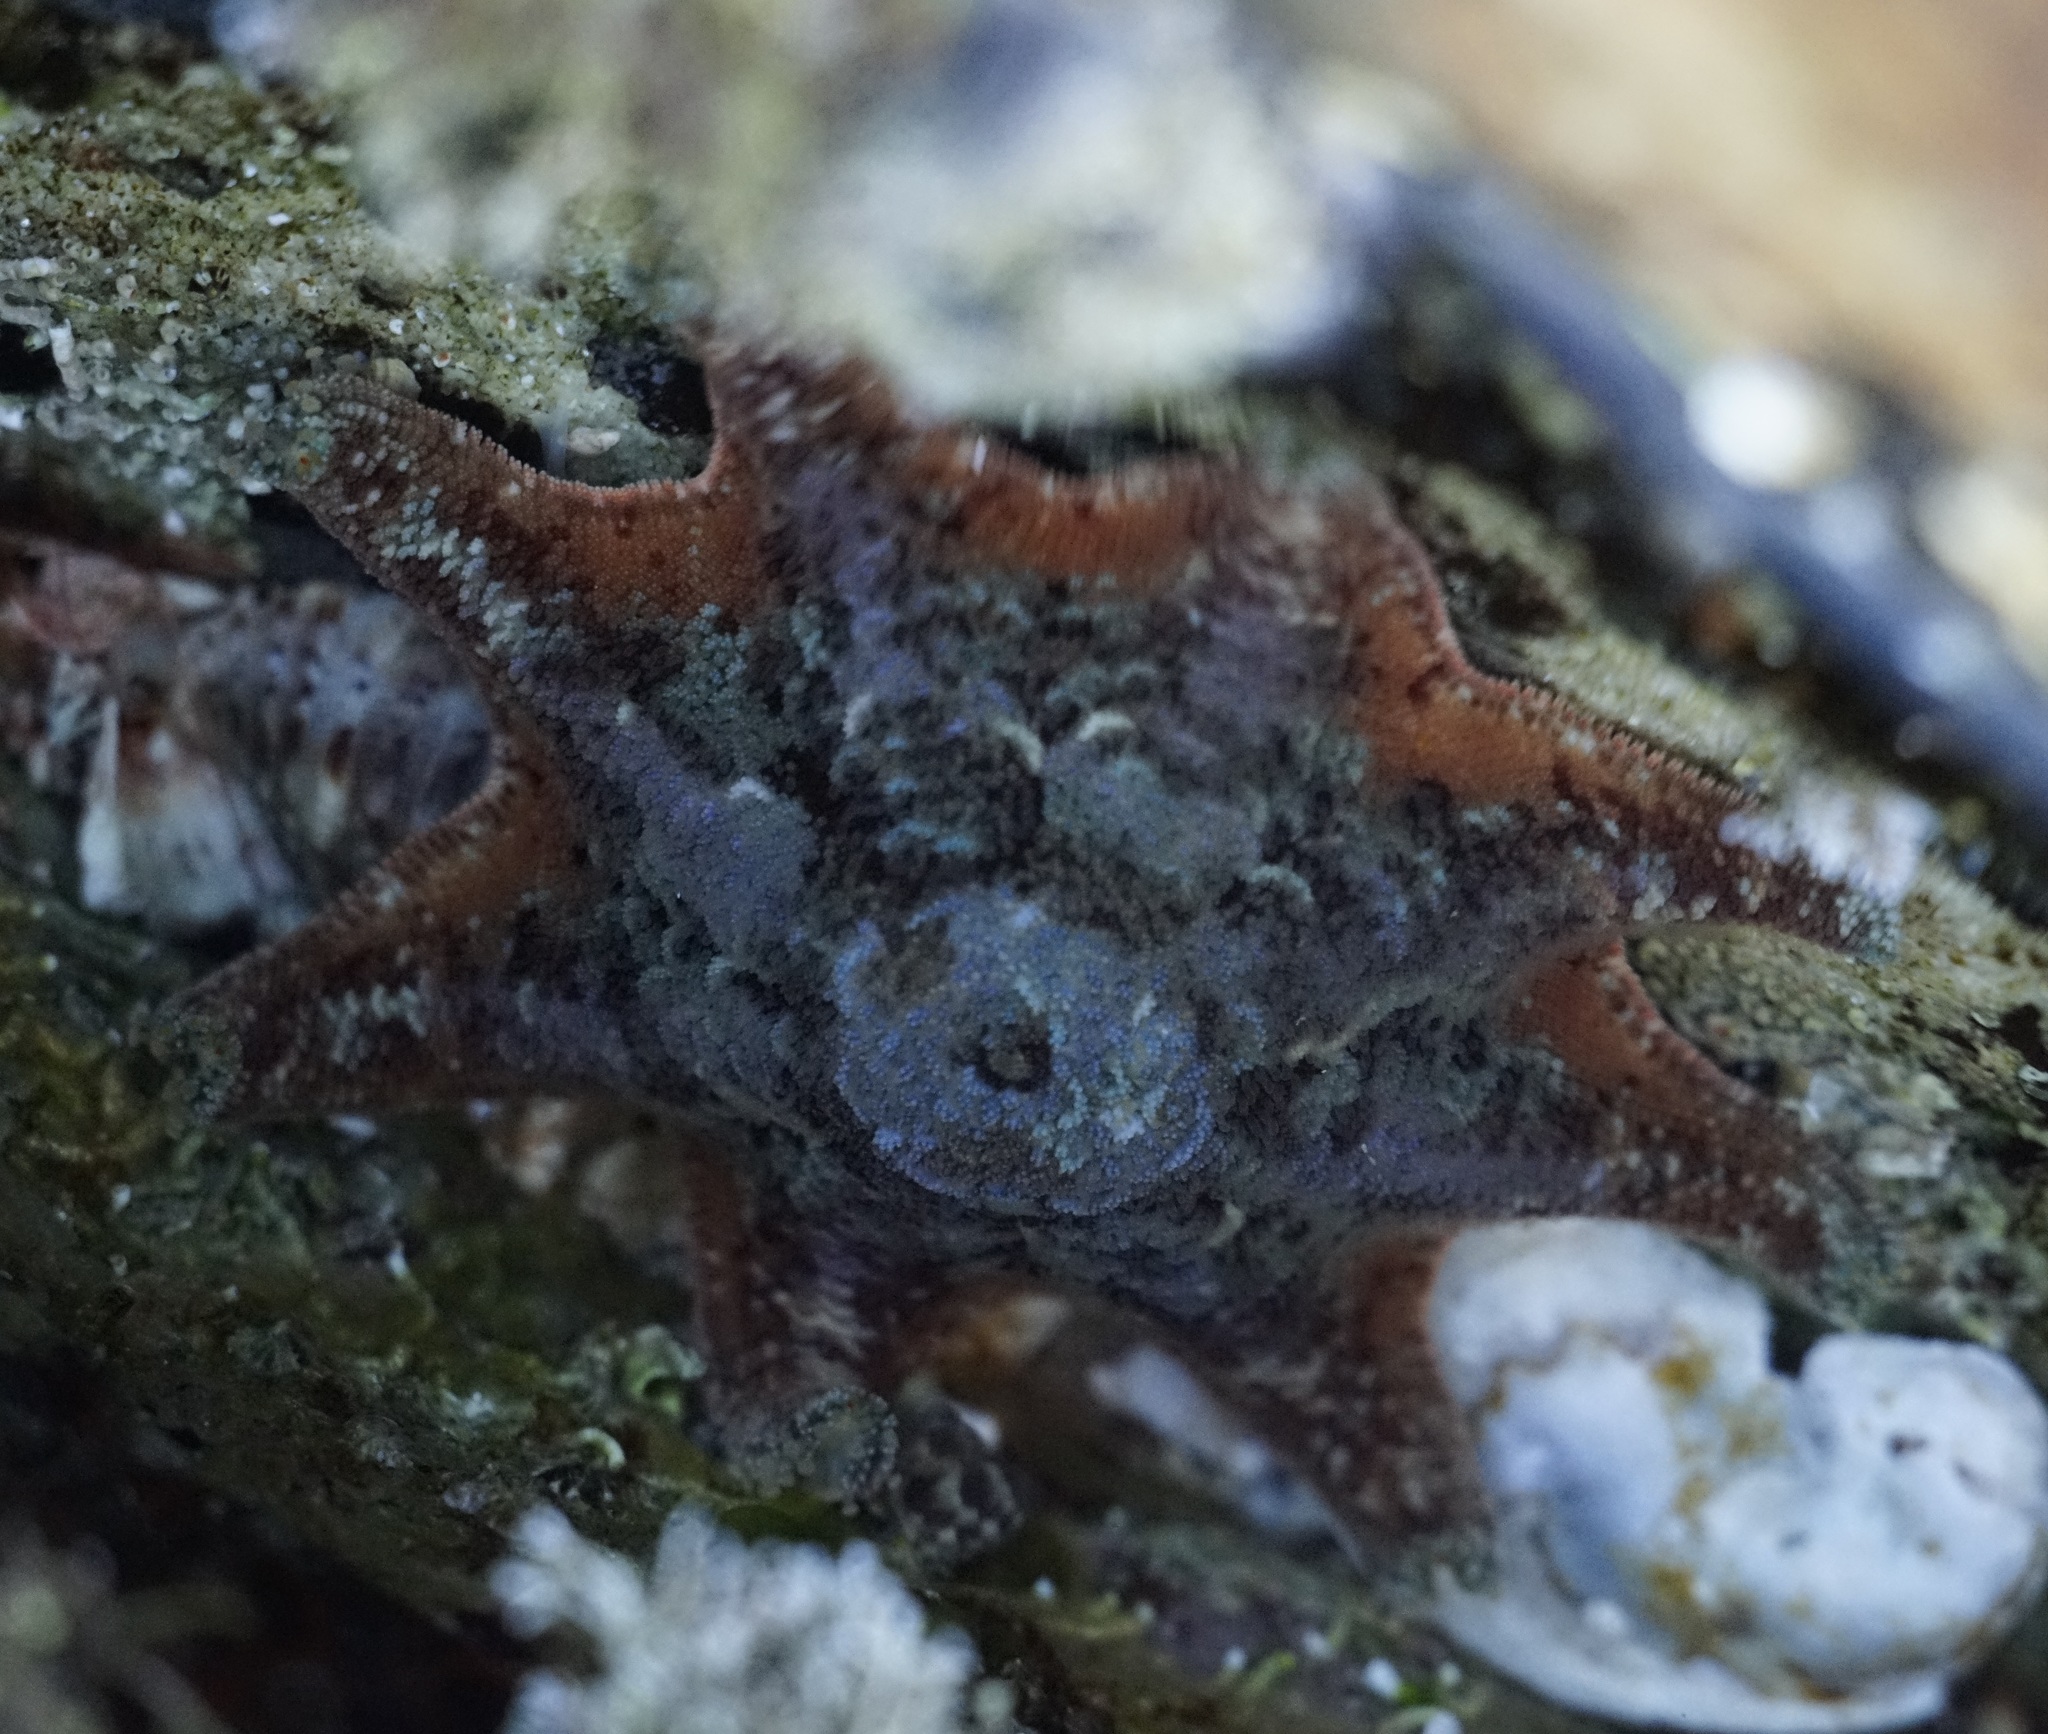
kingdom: Animalia
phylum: Echinodermata
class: Asteroidea
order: Valvatida
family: Asterinidae
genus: Meridiastra
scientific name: Meridiastra calcar
